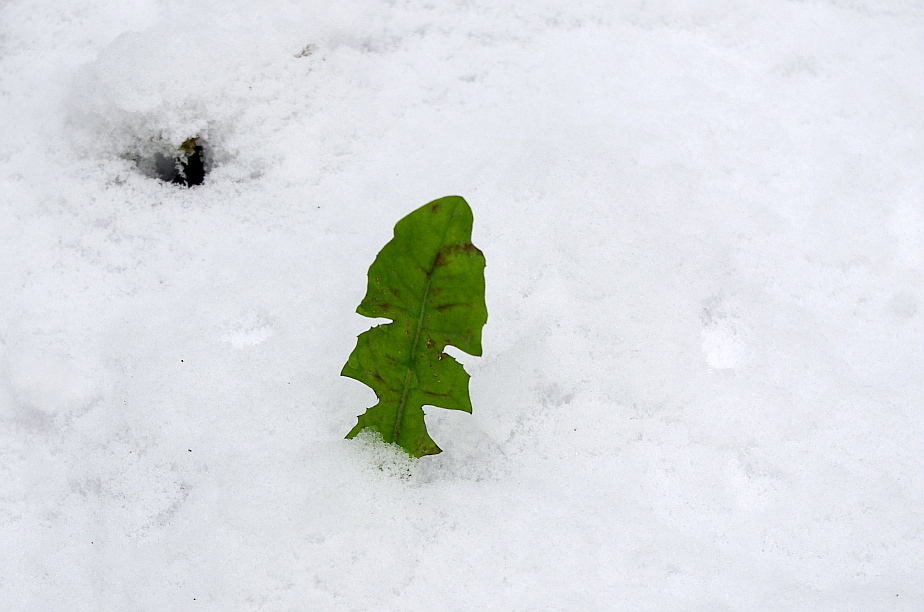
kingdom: Plantae
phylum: Tracheophyta
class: Magnoliopsida
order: Asterales
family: Asteraceae
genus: Taraxacum
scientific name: Taraxacum officinale
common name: Common dandelion
